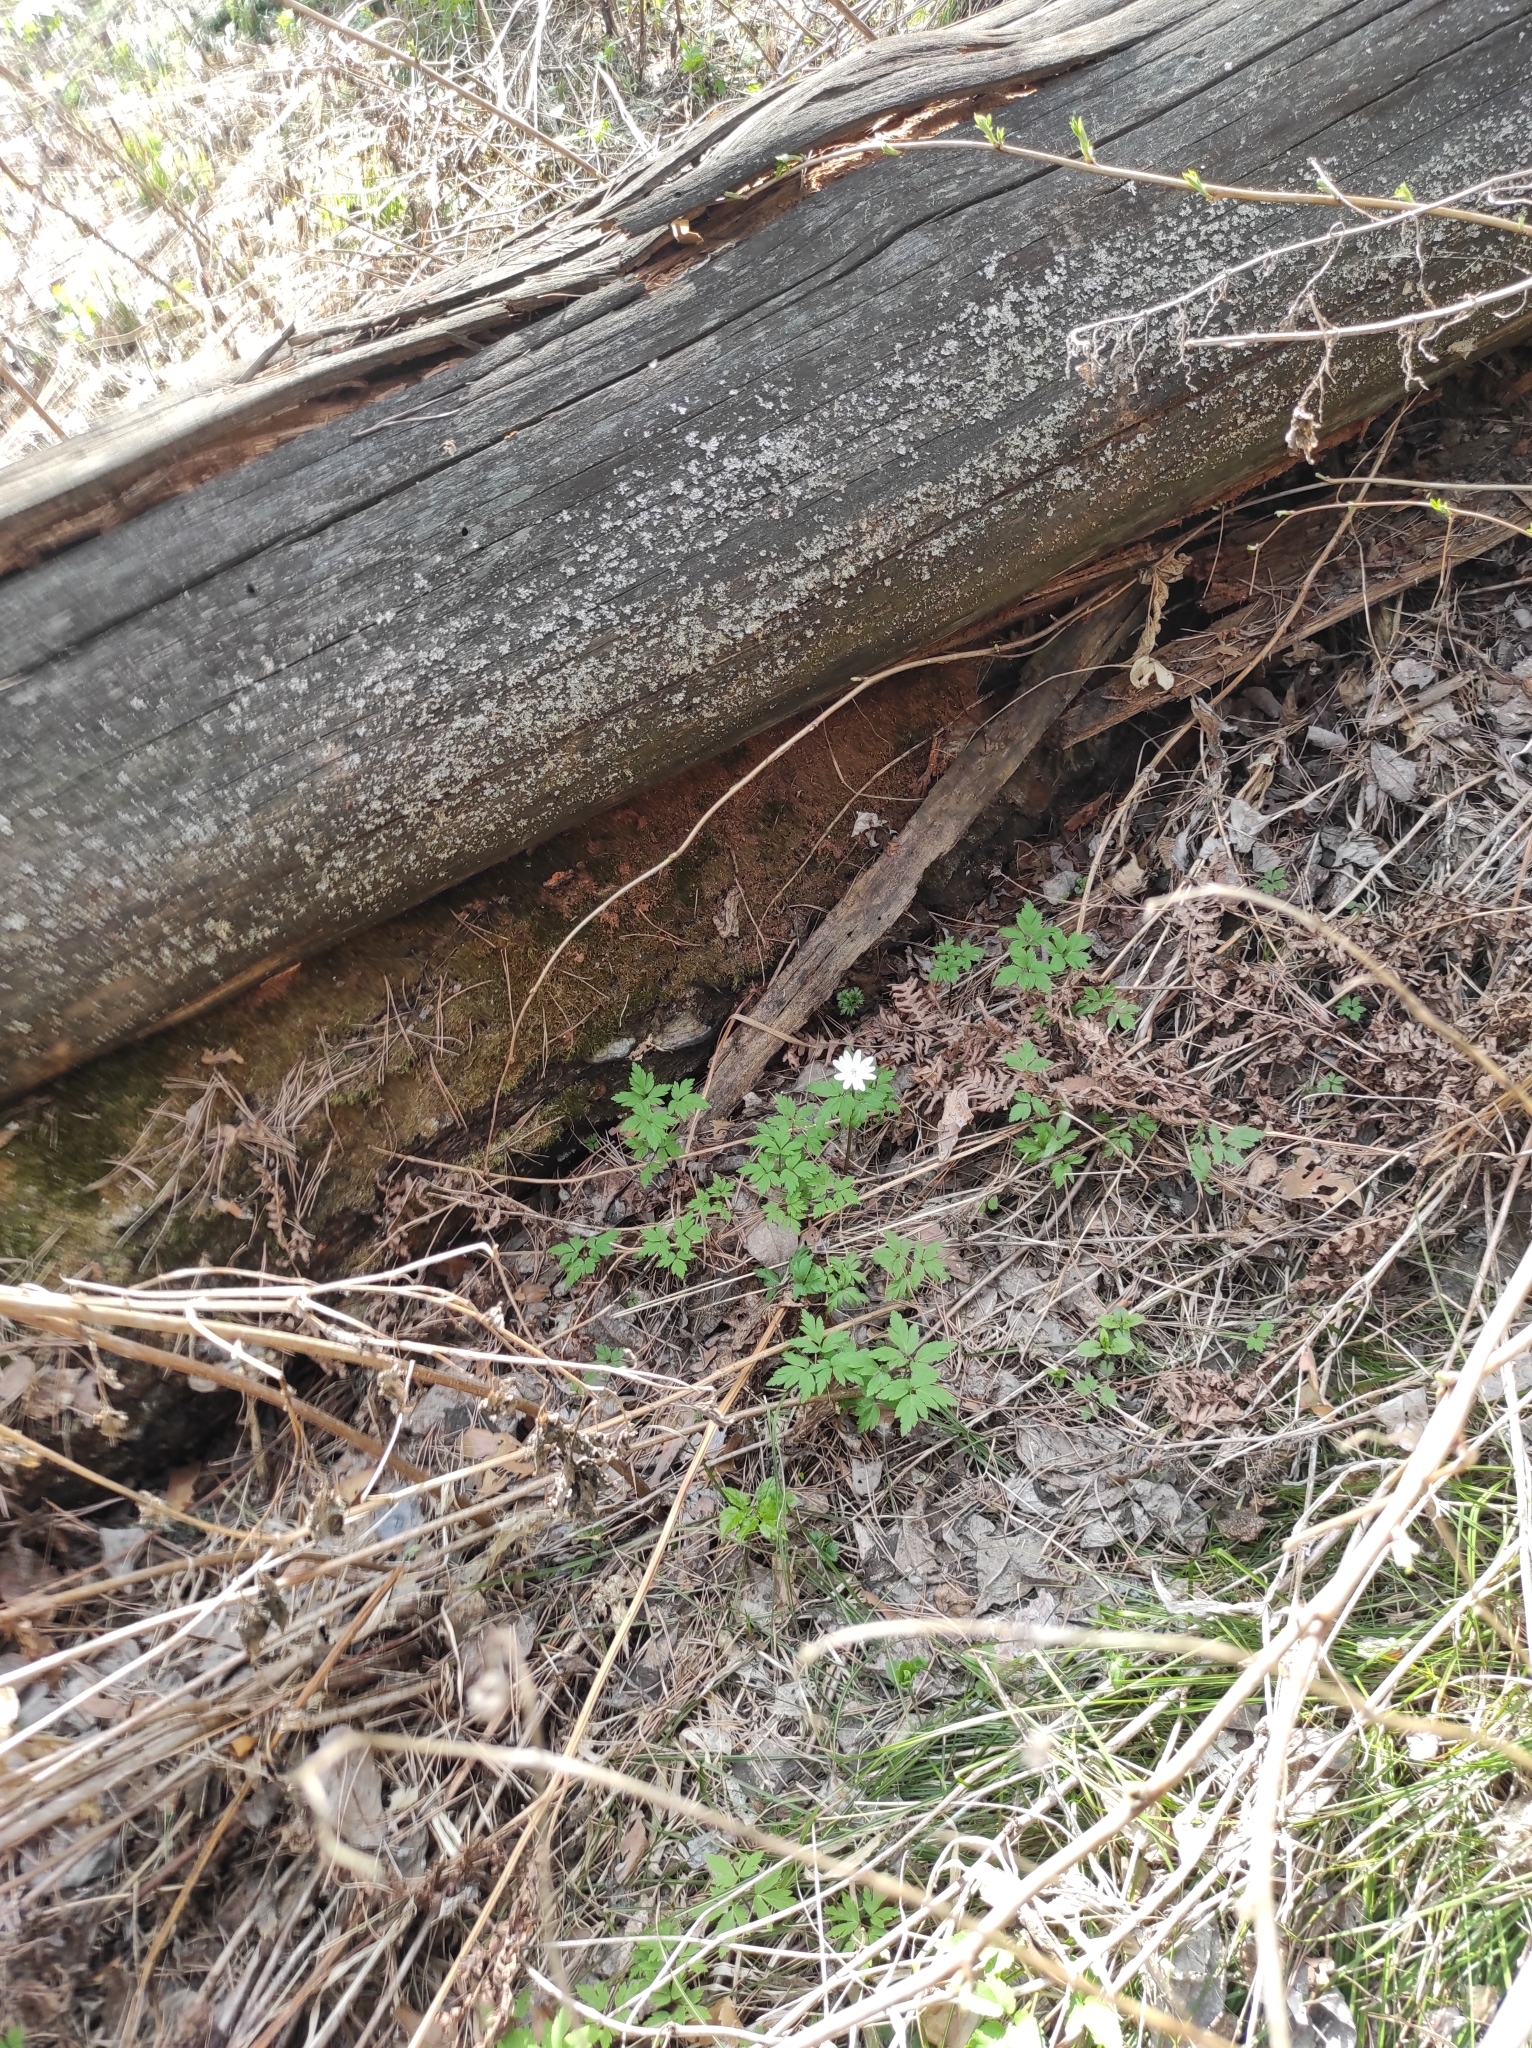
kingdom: Plantae
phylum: Tracheophyta
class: Magnoliopsida
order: Ranunculales
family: Ranunculaceae
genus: Anemone
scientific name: Anemone altaica
